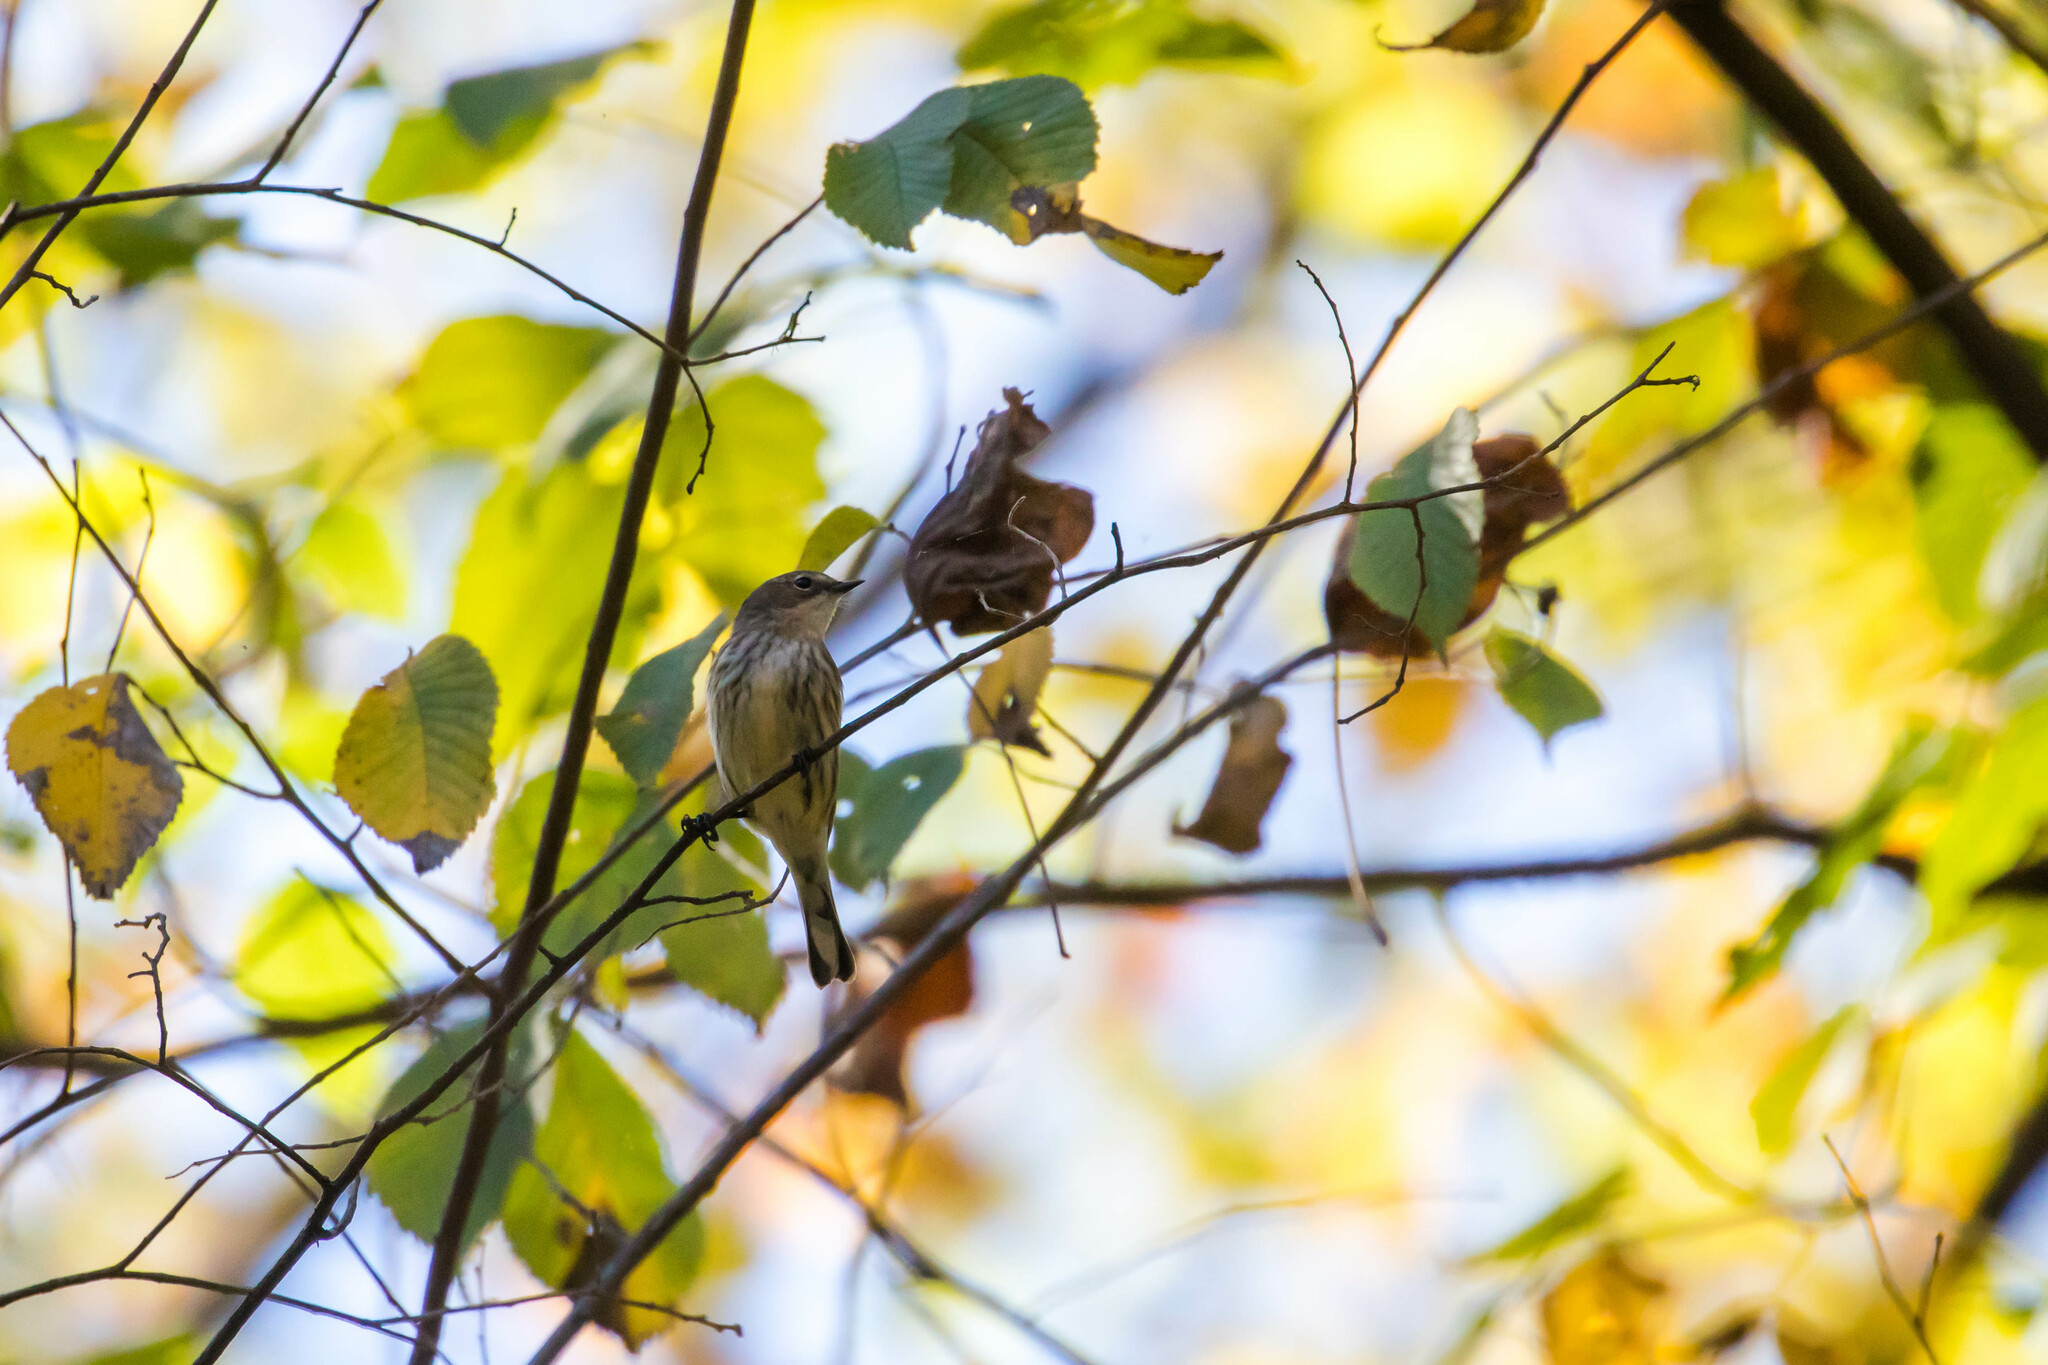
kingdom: Animalia
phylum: Chordata
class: Aves
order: Passeriformes
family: Parulidae
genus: Setophaga
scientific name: Setophaga coronata
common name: Myrtle warbler
